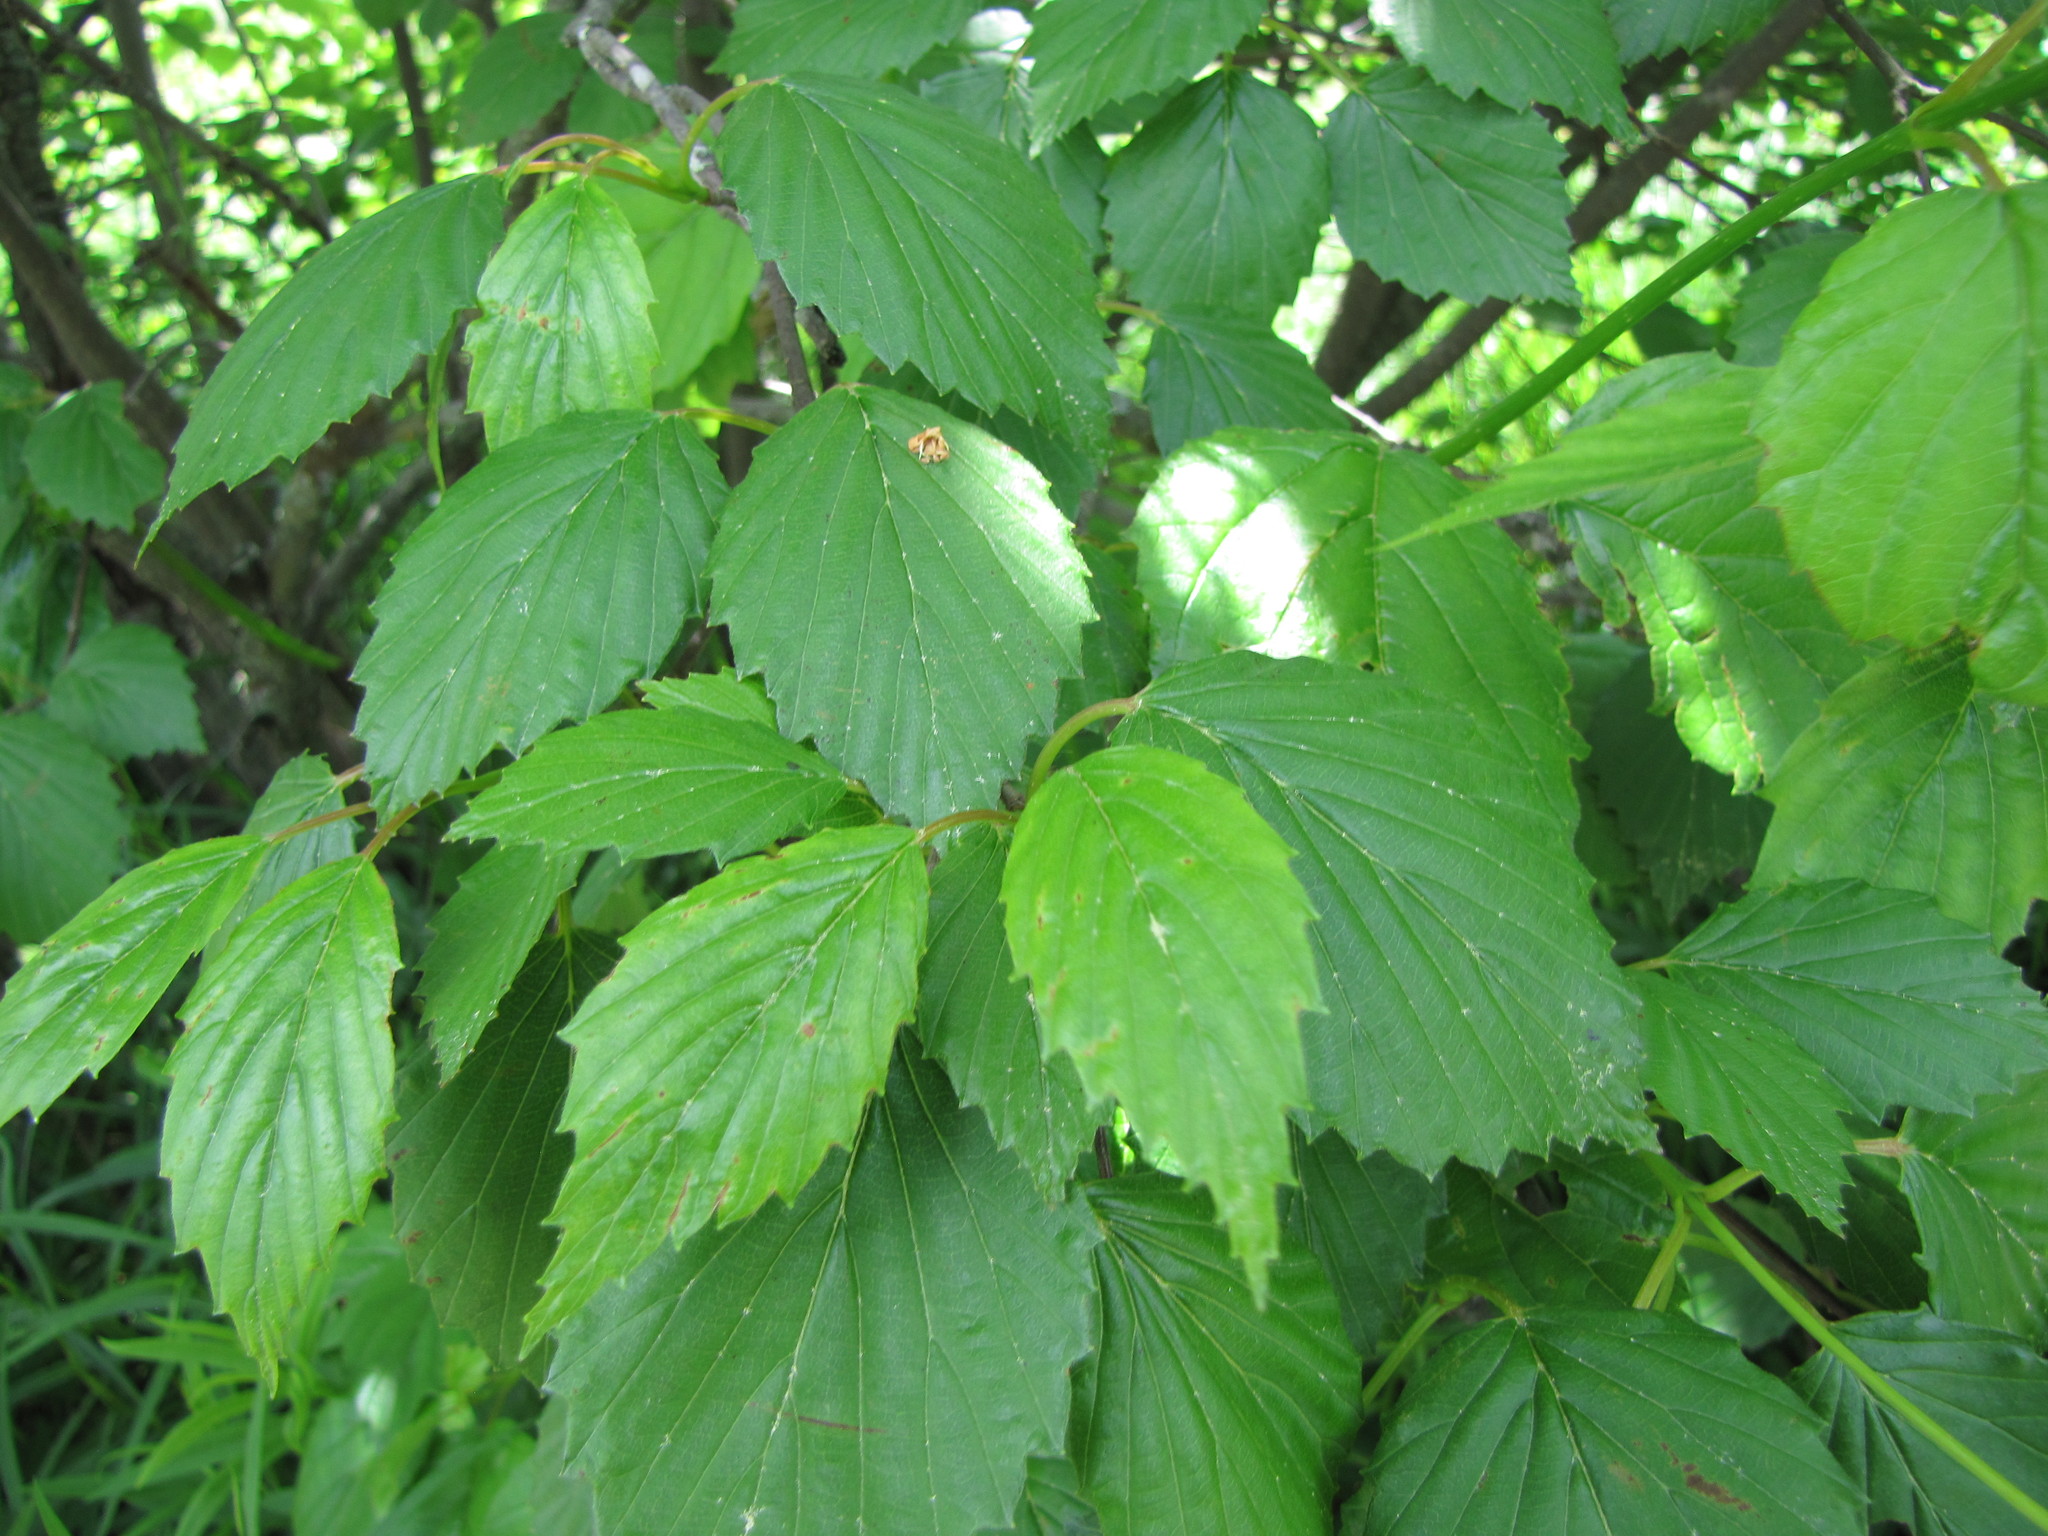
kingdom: Plantae
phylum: Tracheophyta
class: Magnoliopsida
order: Dipsacales
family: Viburnaceae
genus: Viburnum
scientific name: Viburnum recognitum
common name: Northern arrow-wood
